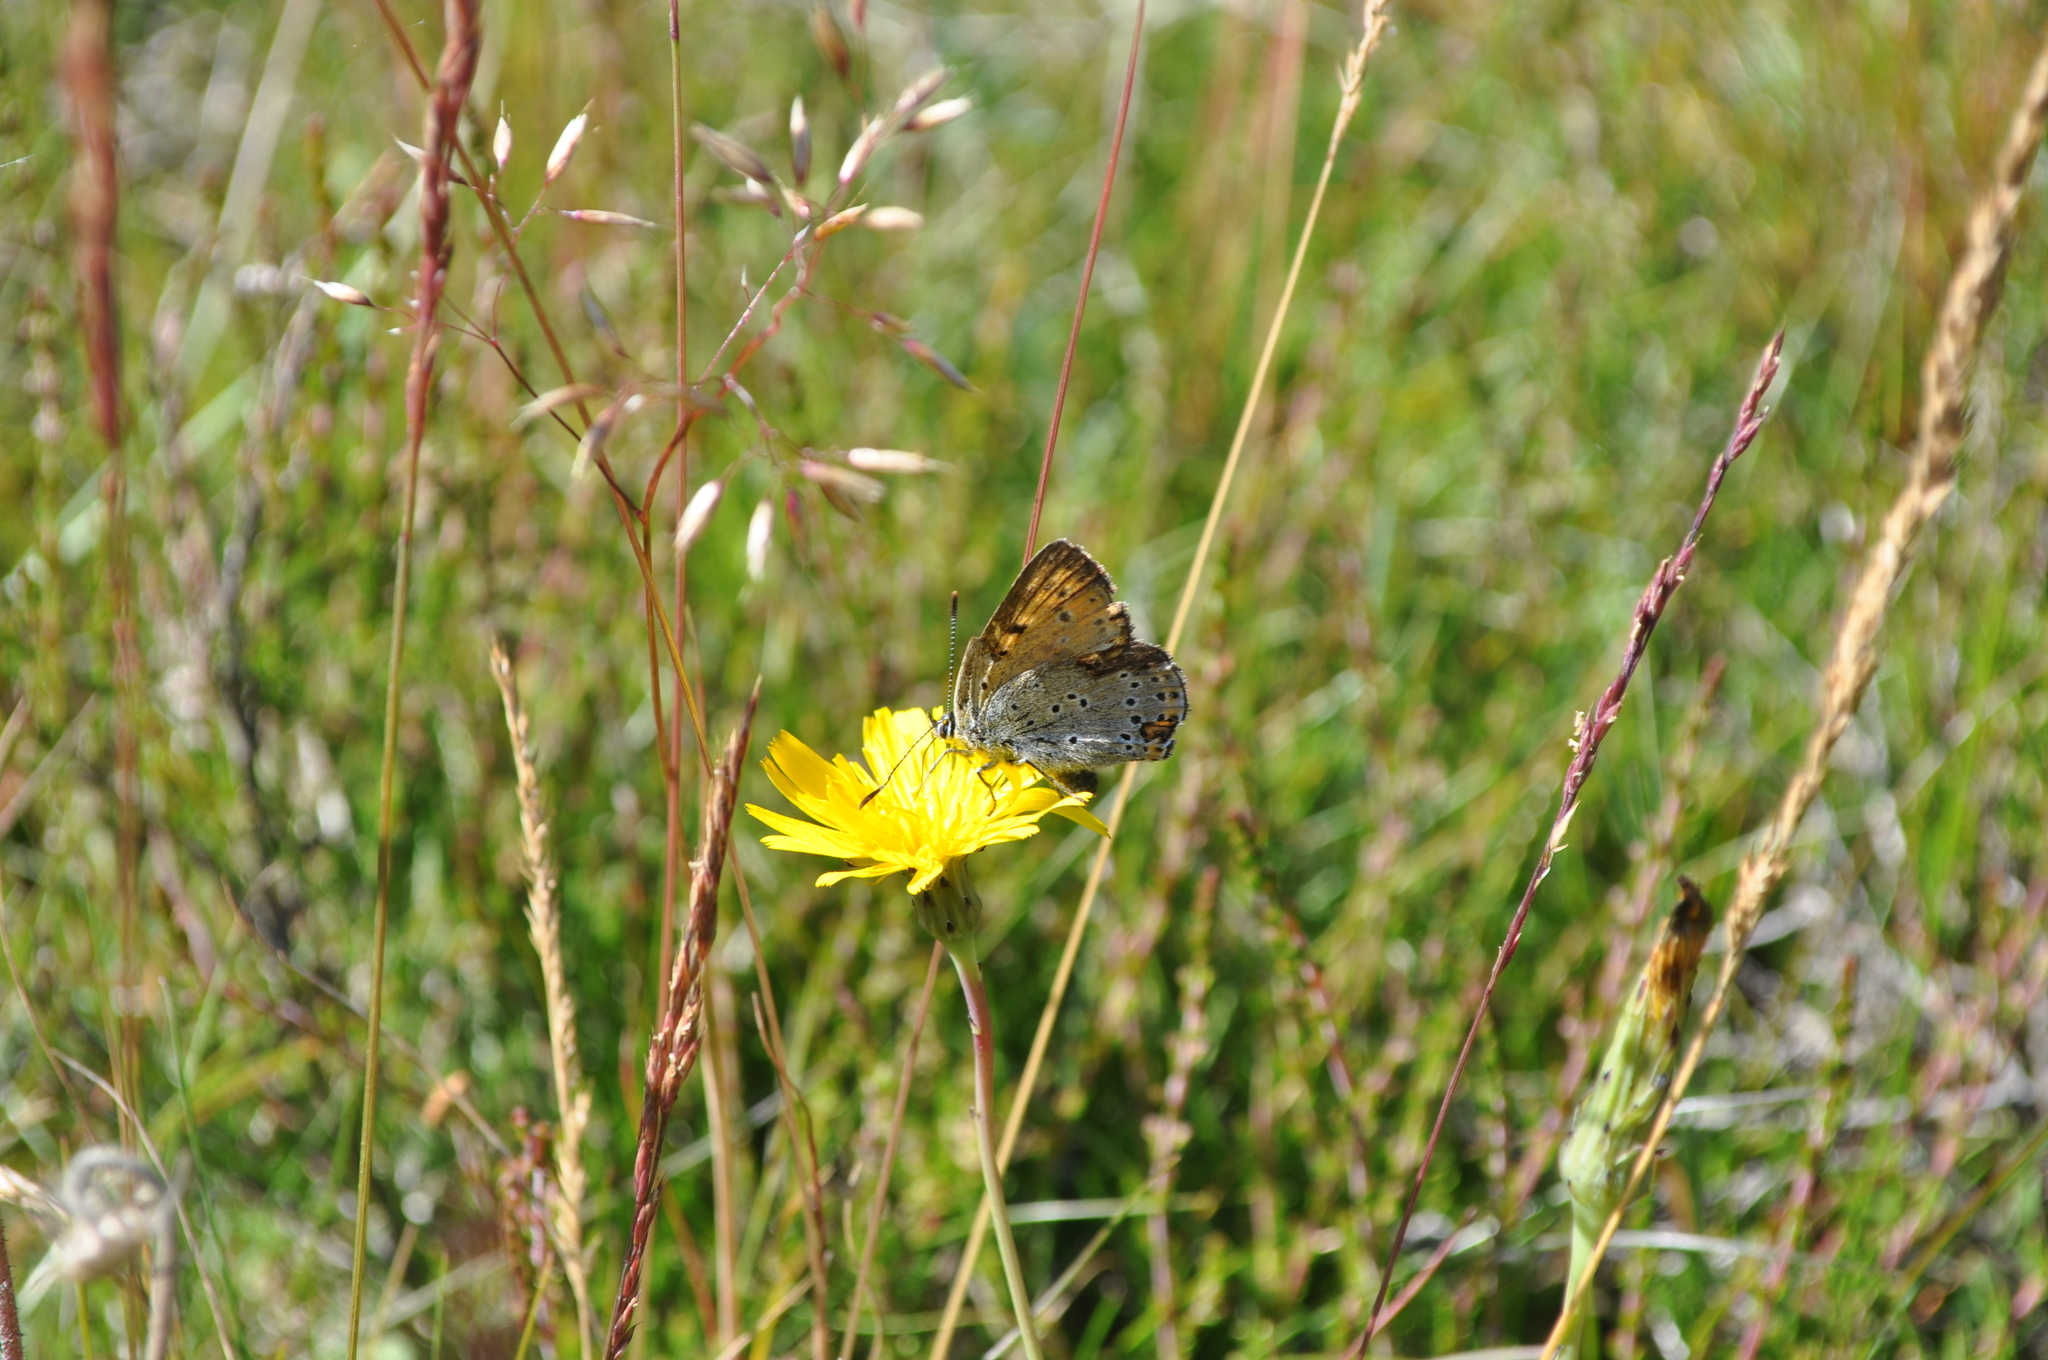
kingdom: Animalia
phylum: Arthropoda
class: Insecta
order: Lepidoptera
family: Lycaenidae
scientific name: Lycaenidae
